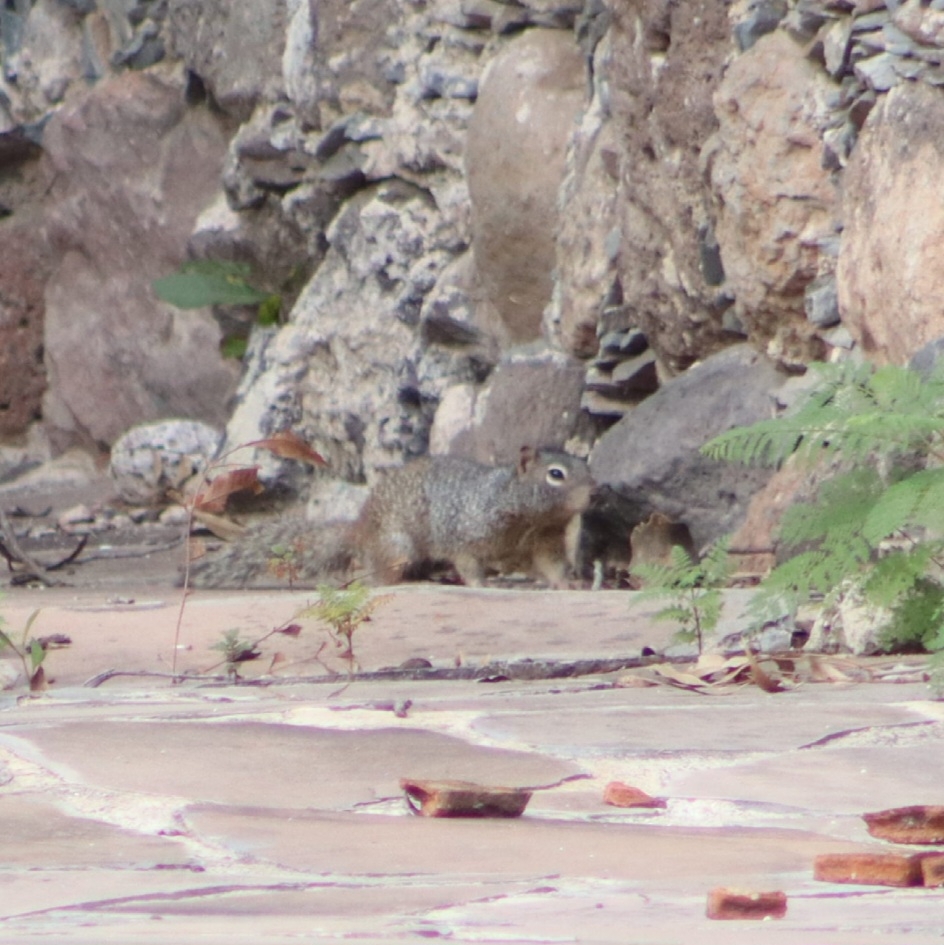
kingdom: Animalia
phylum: Chordata
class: Mammalia
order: Rodentia
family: Sciuridae
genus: Otospermophilus
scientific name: Otospermophilus variegatus
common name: Rock squirrel
